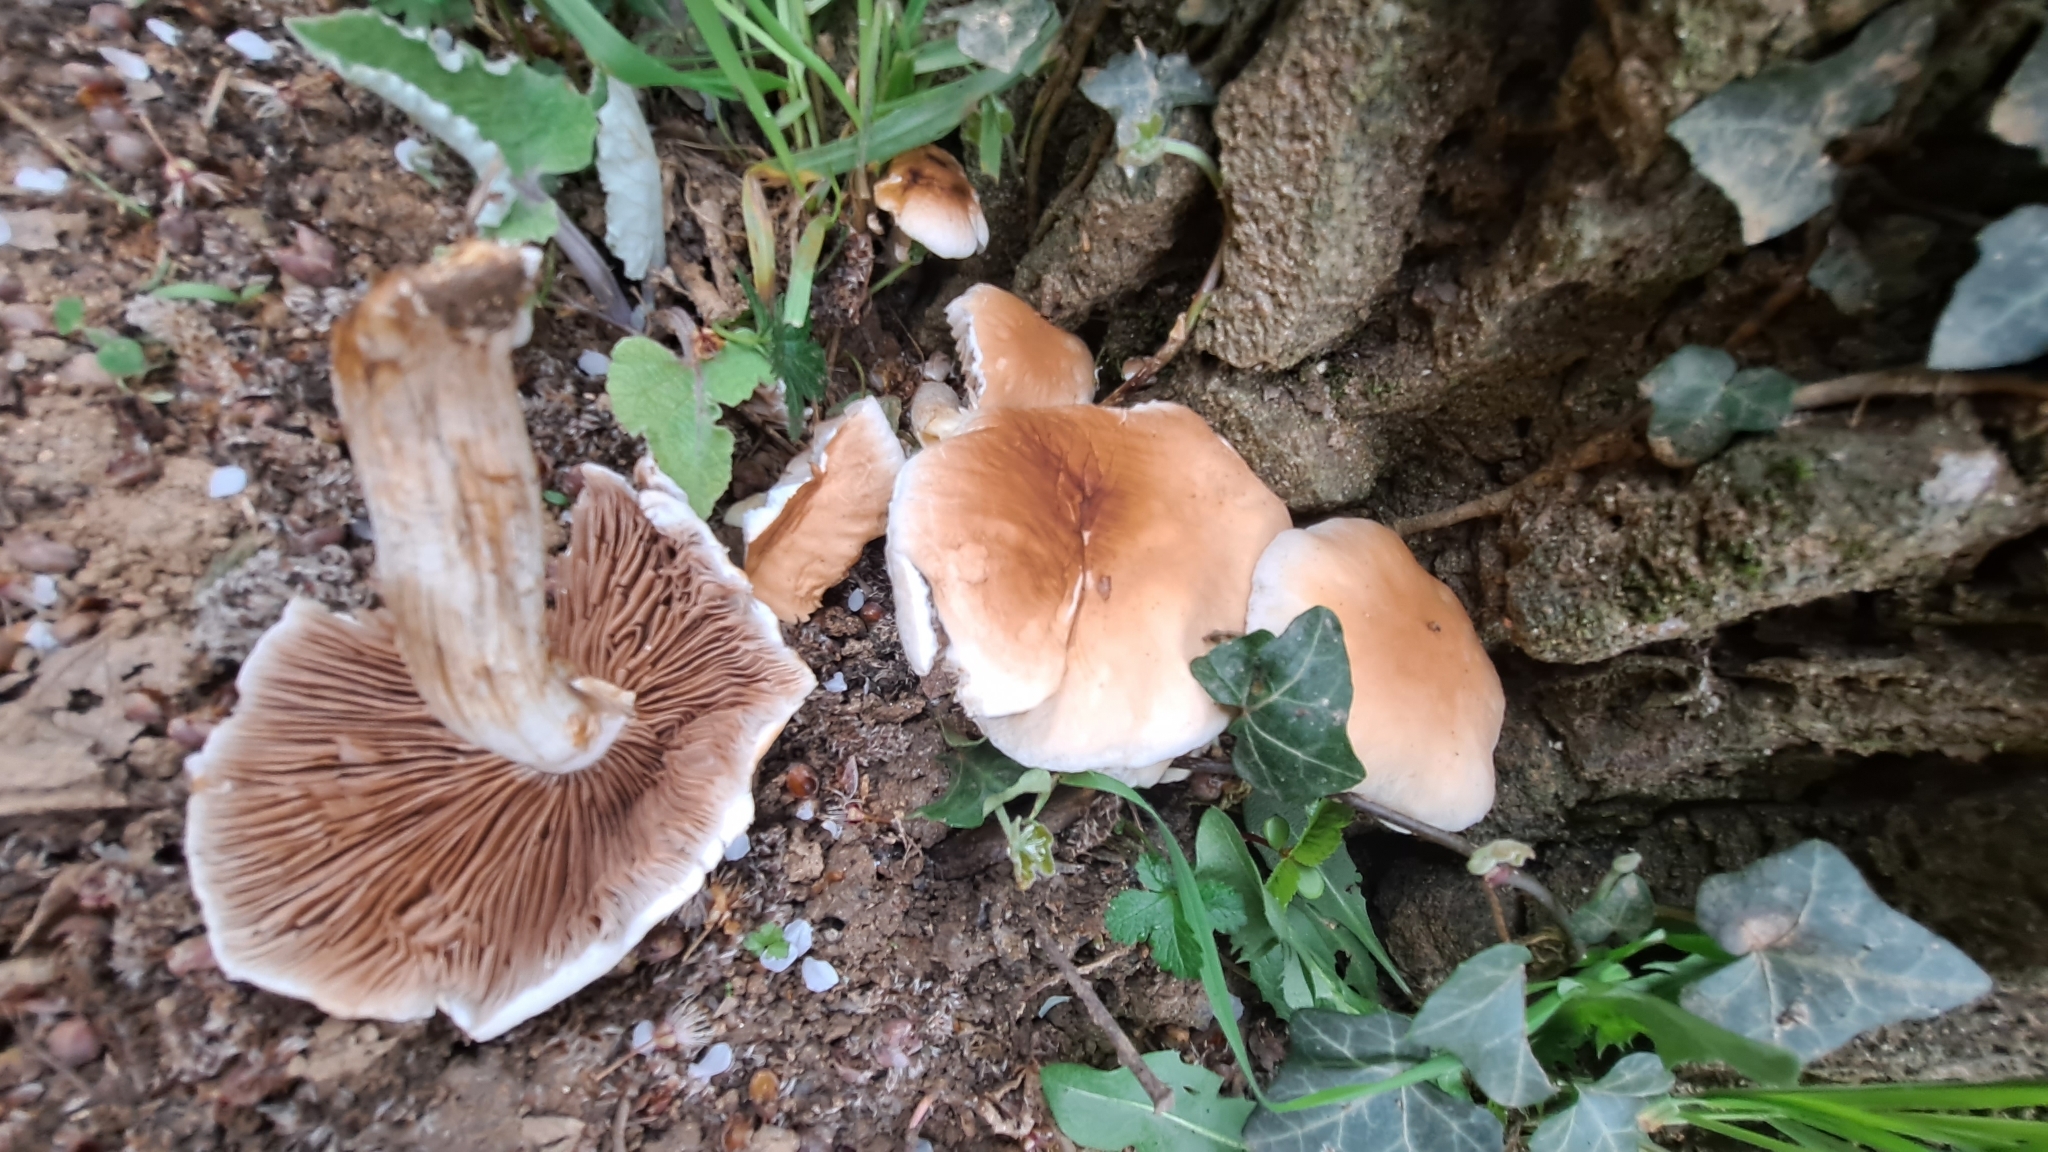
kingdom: Fungi
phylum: Basidiomycota
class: Agaricomycetes
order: Agaricales
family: Tubariaceae
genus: Cyclocybe
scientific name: Cyclocybe cylindracea
